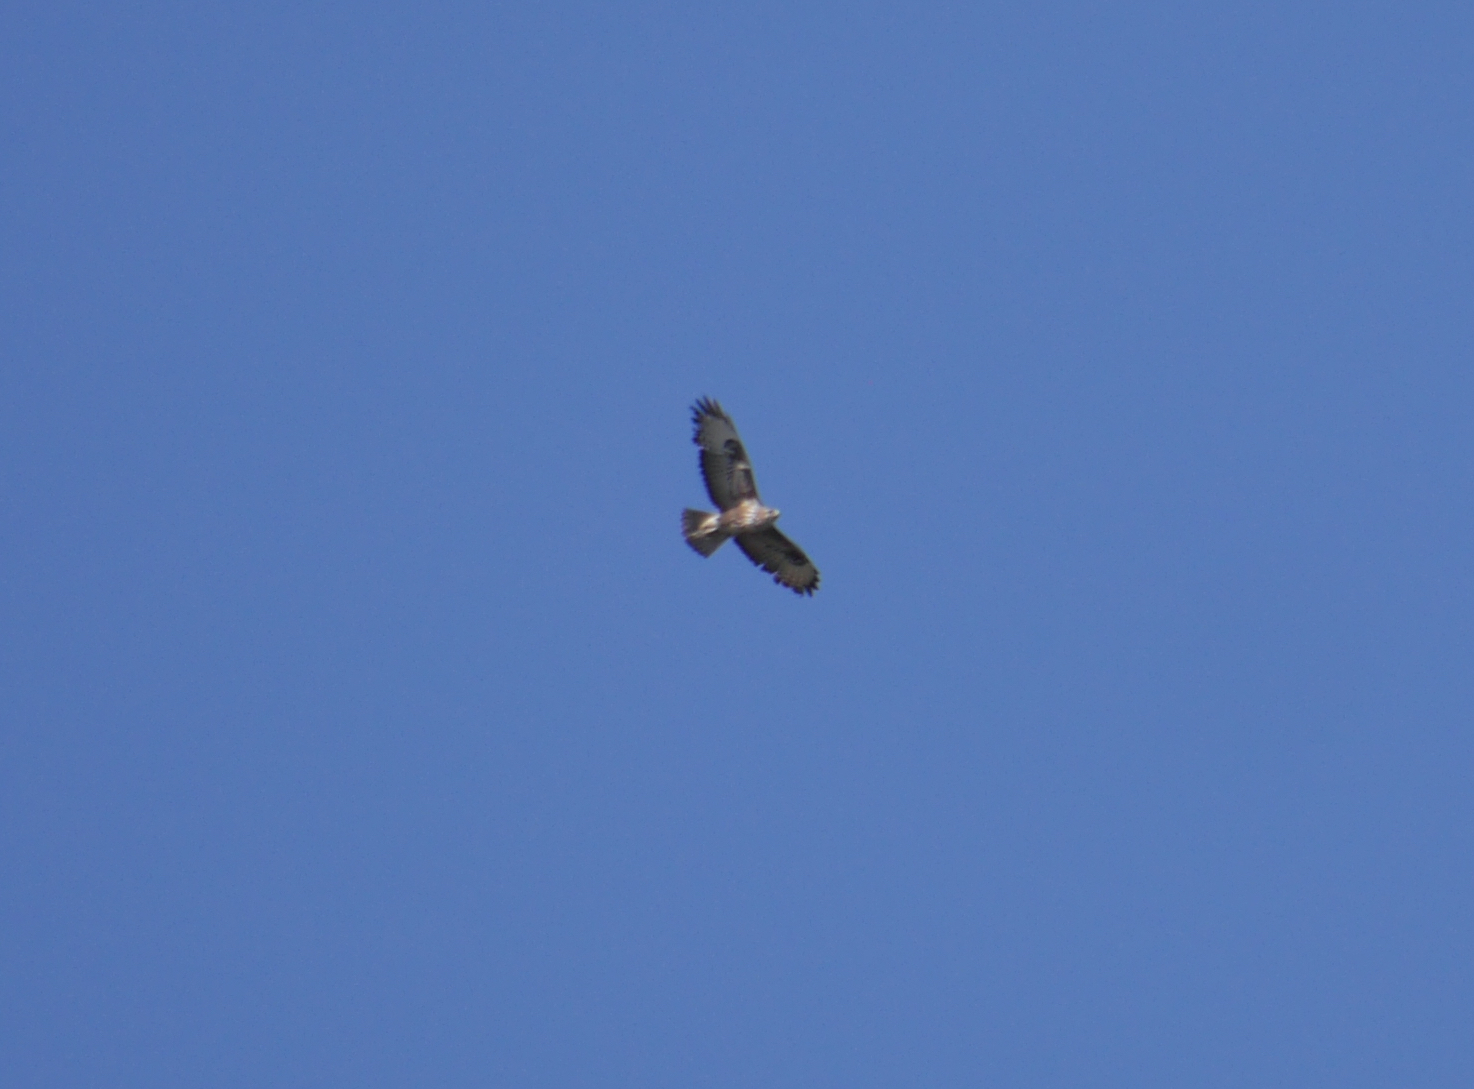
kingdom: Animalia
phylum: Chordata
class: Aves
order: Accipitriformes
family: Accipitridae
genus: Buteo
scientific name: Buteo buteo
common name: Common buzzard
